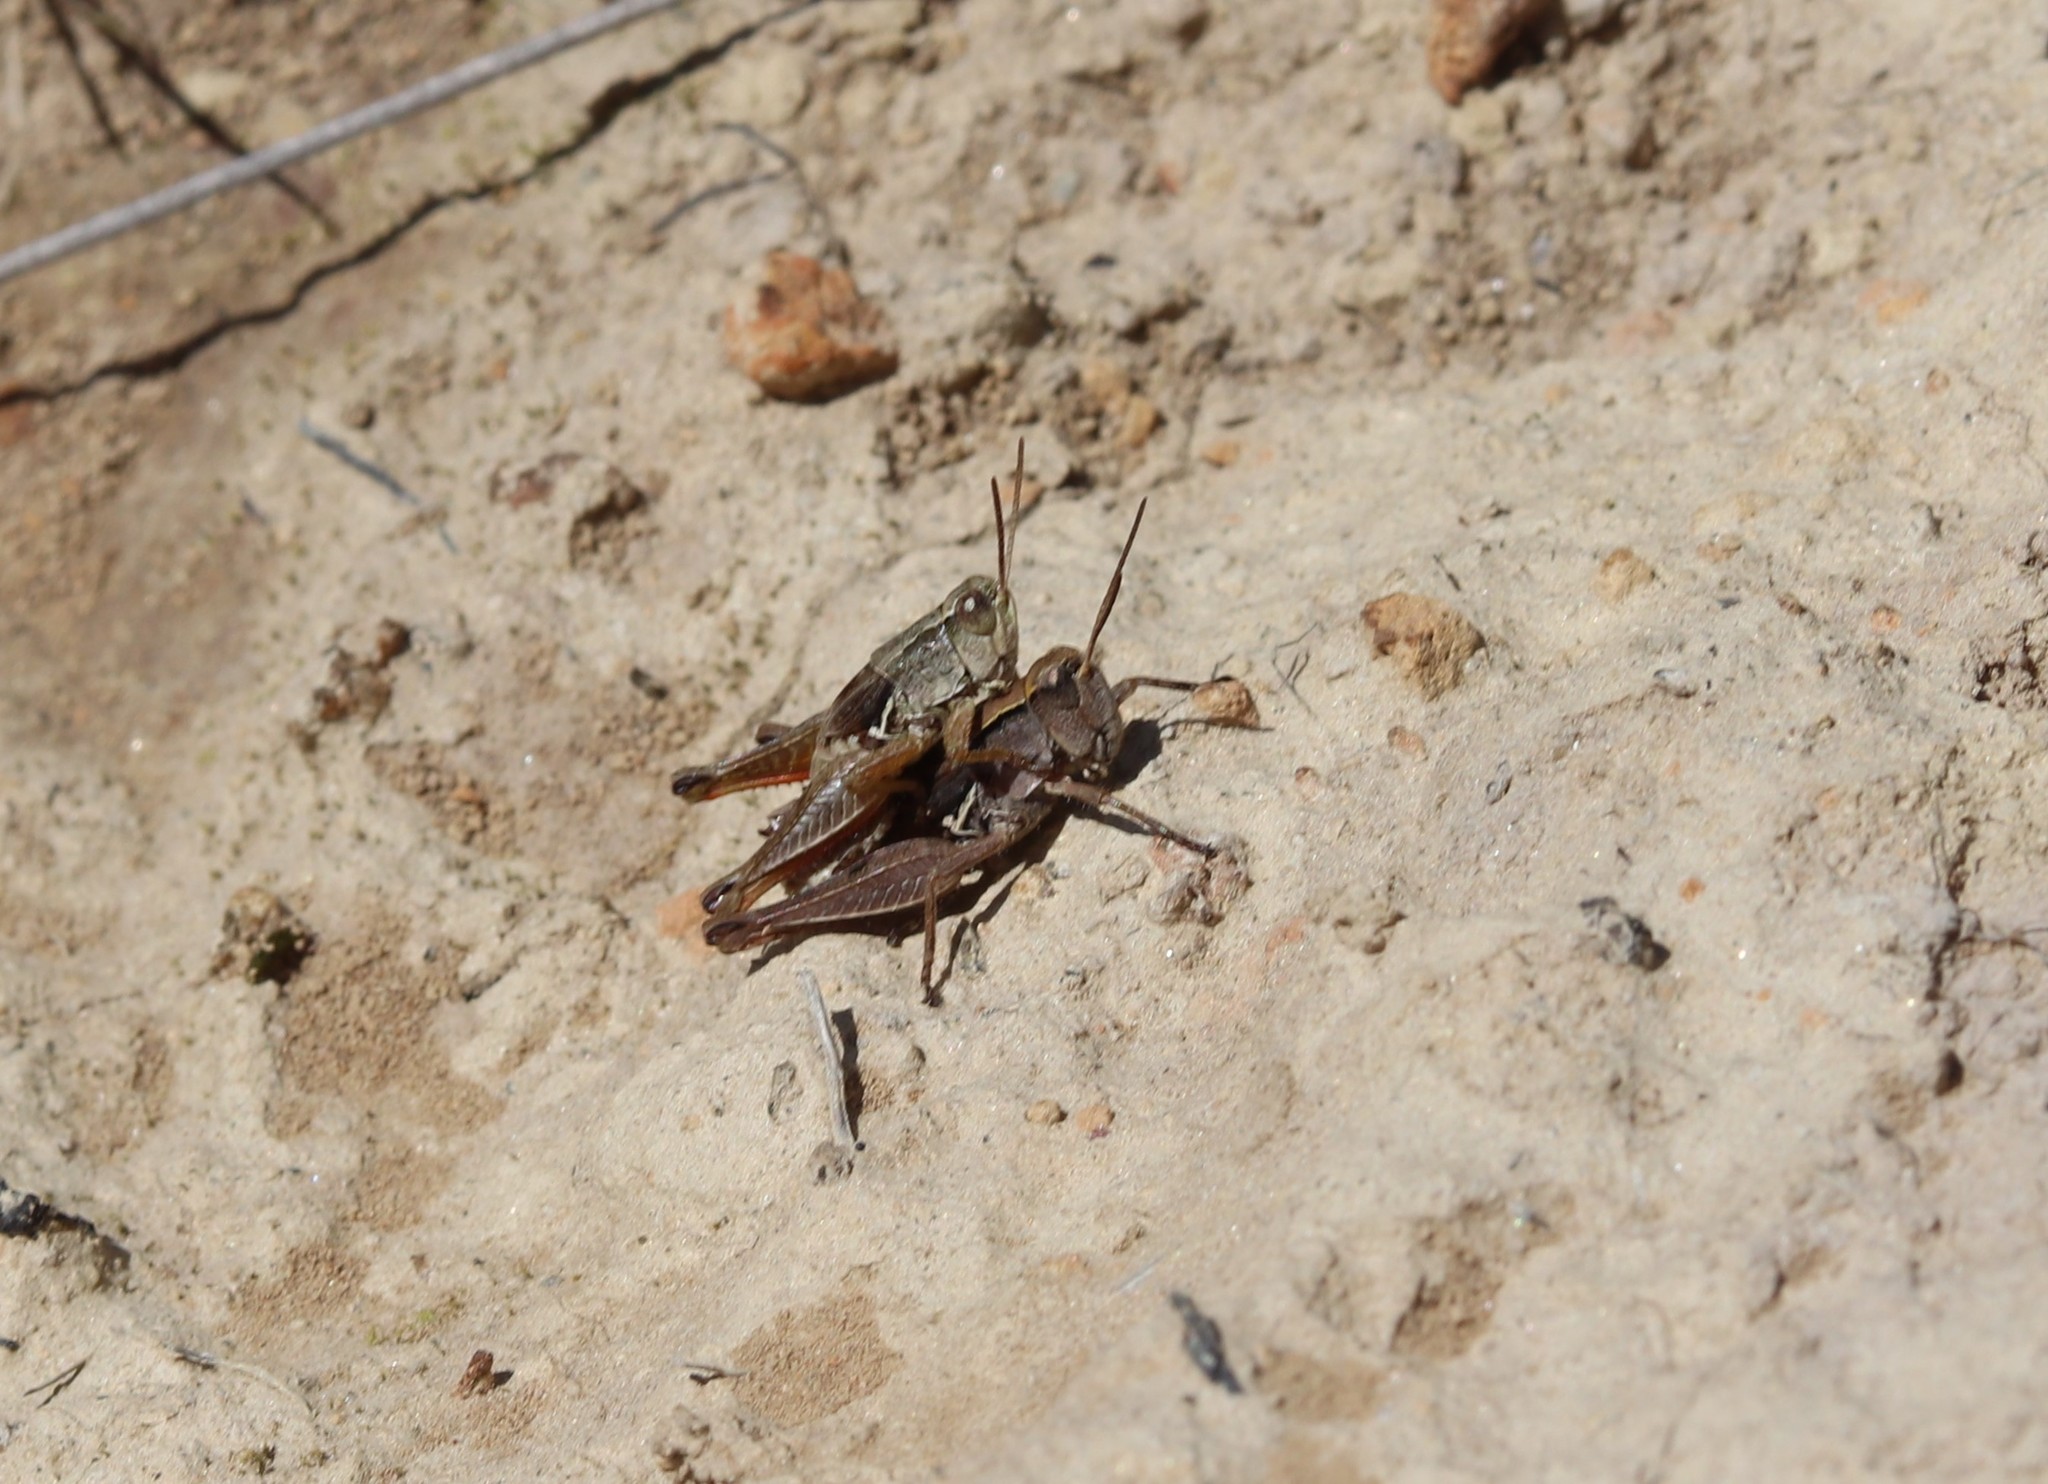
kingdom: Animalia
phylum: Arthropoda
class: Insecta
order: Orthoptera
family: Acrididae
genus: Phaulacridium
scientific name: Phaulacridium marginale
